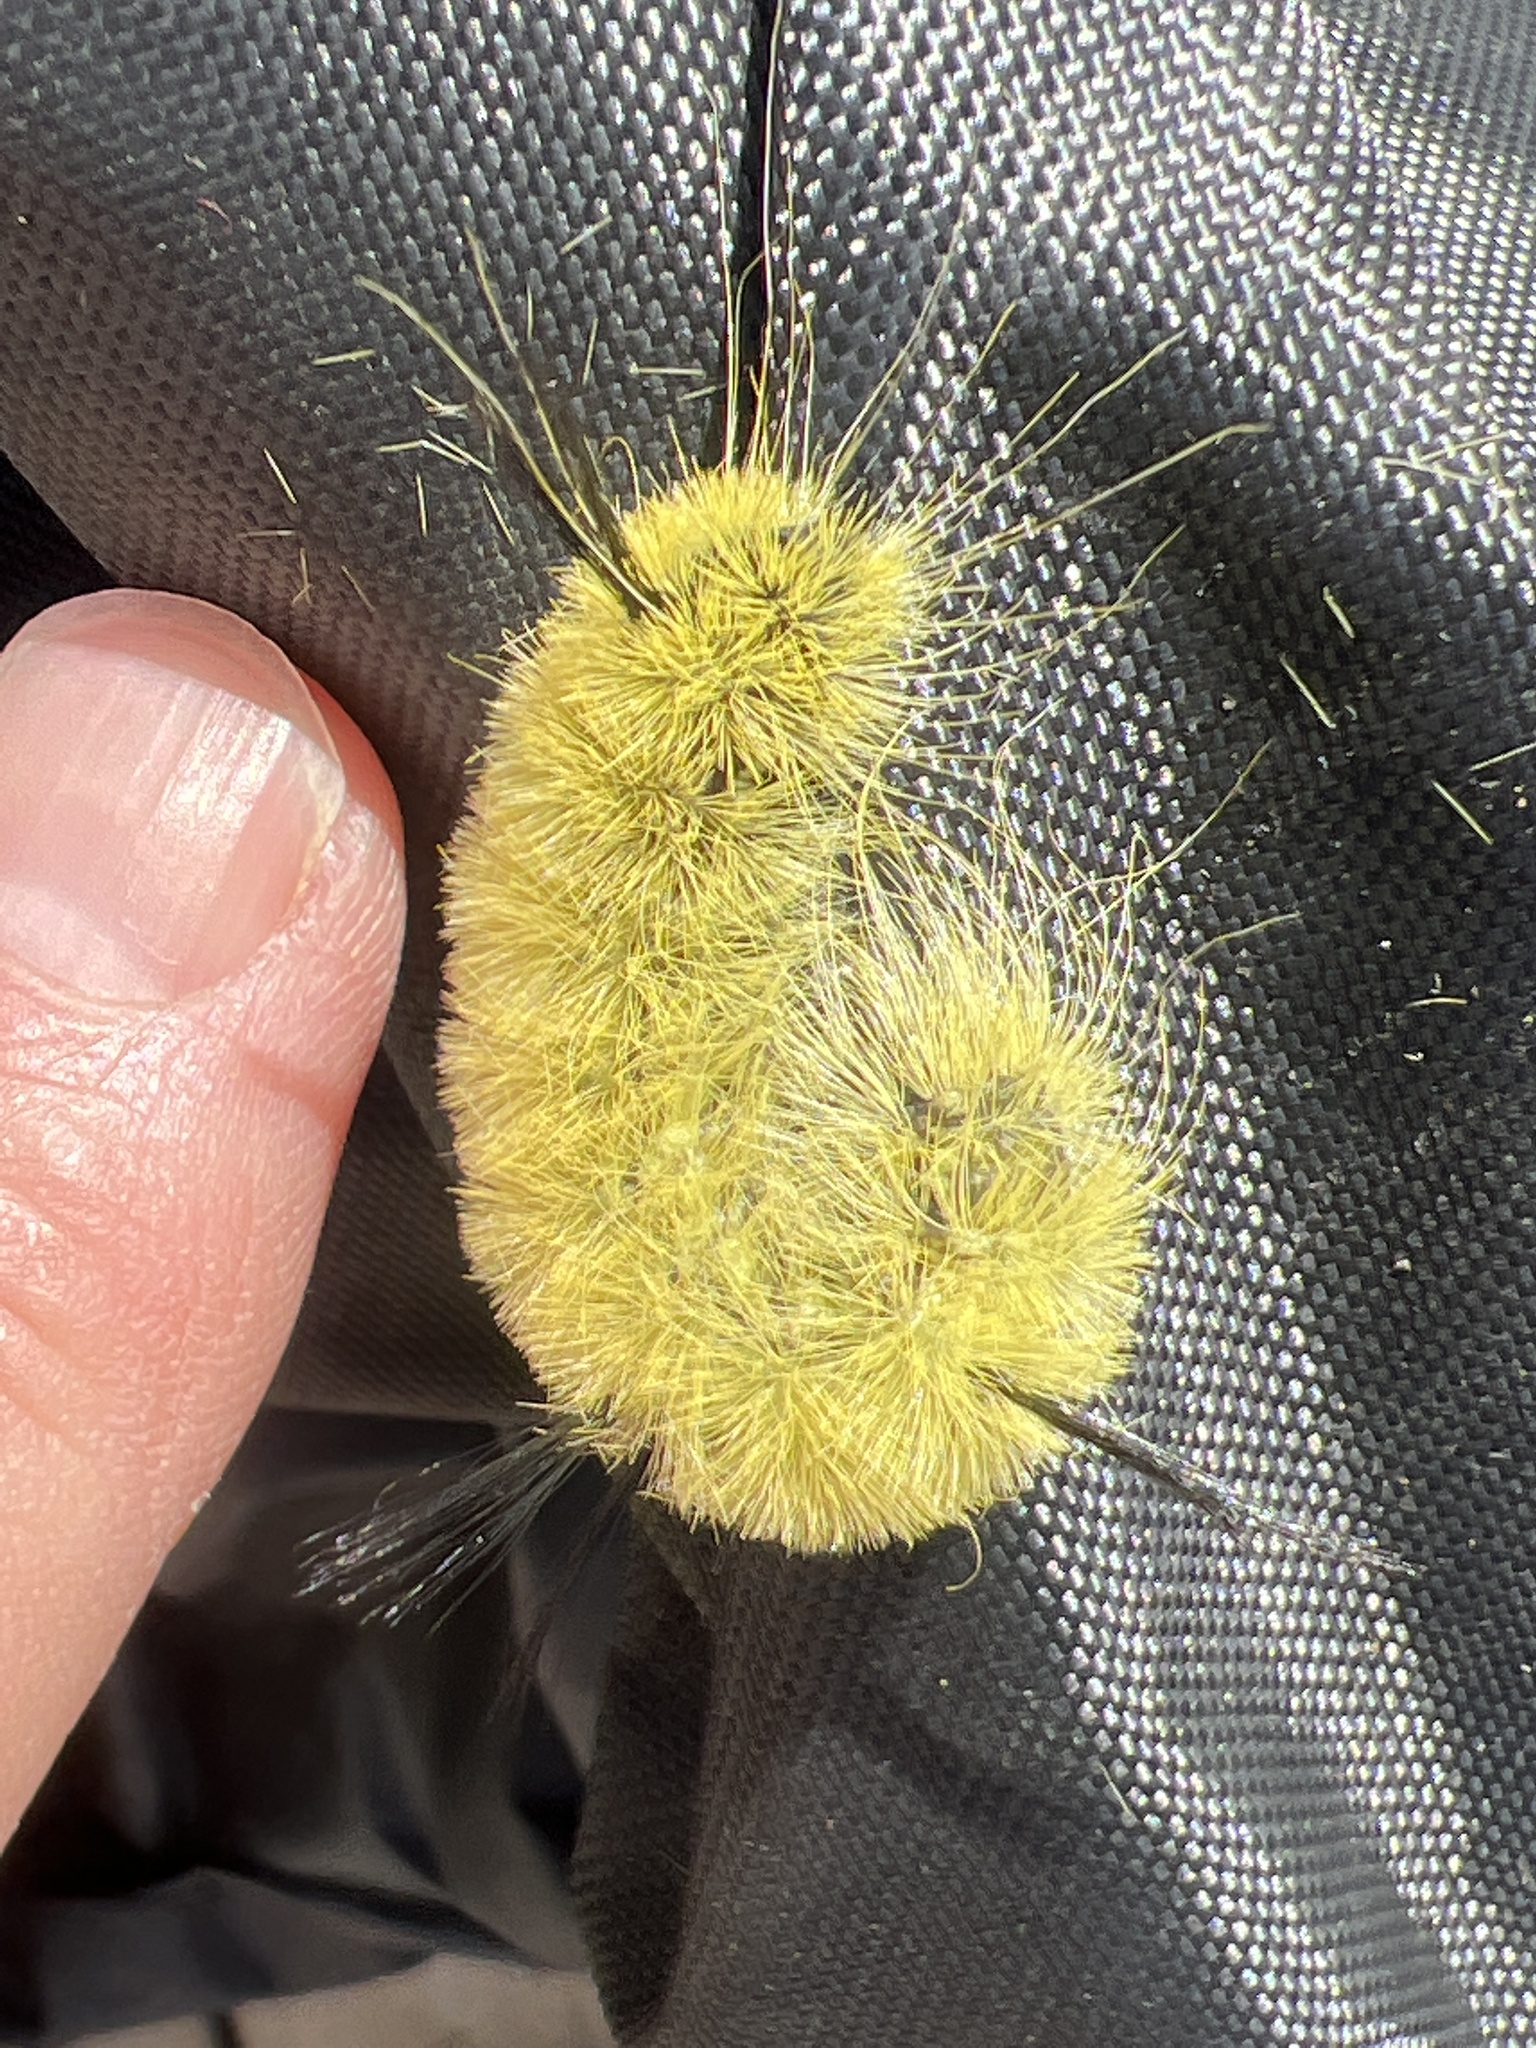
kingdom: Animalia
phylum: Arthropoda
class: Insecta
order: Lepidoptera
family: Noctuidae
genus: Acronicta
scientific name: Acronicta americana
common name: American dagger
